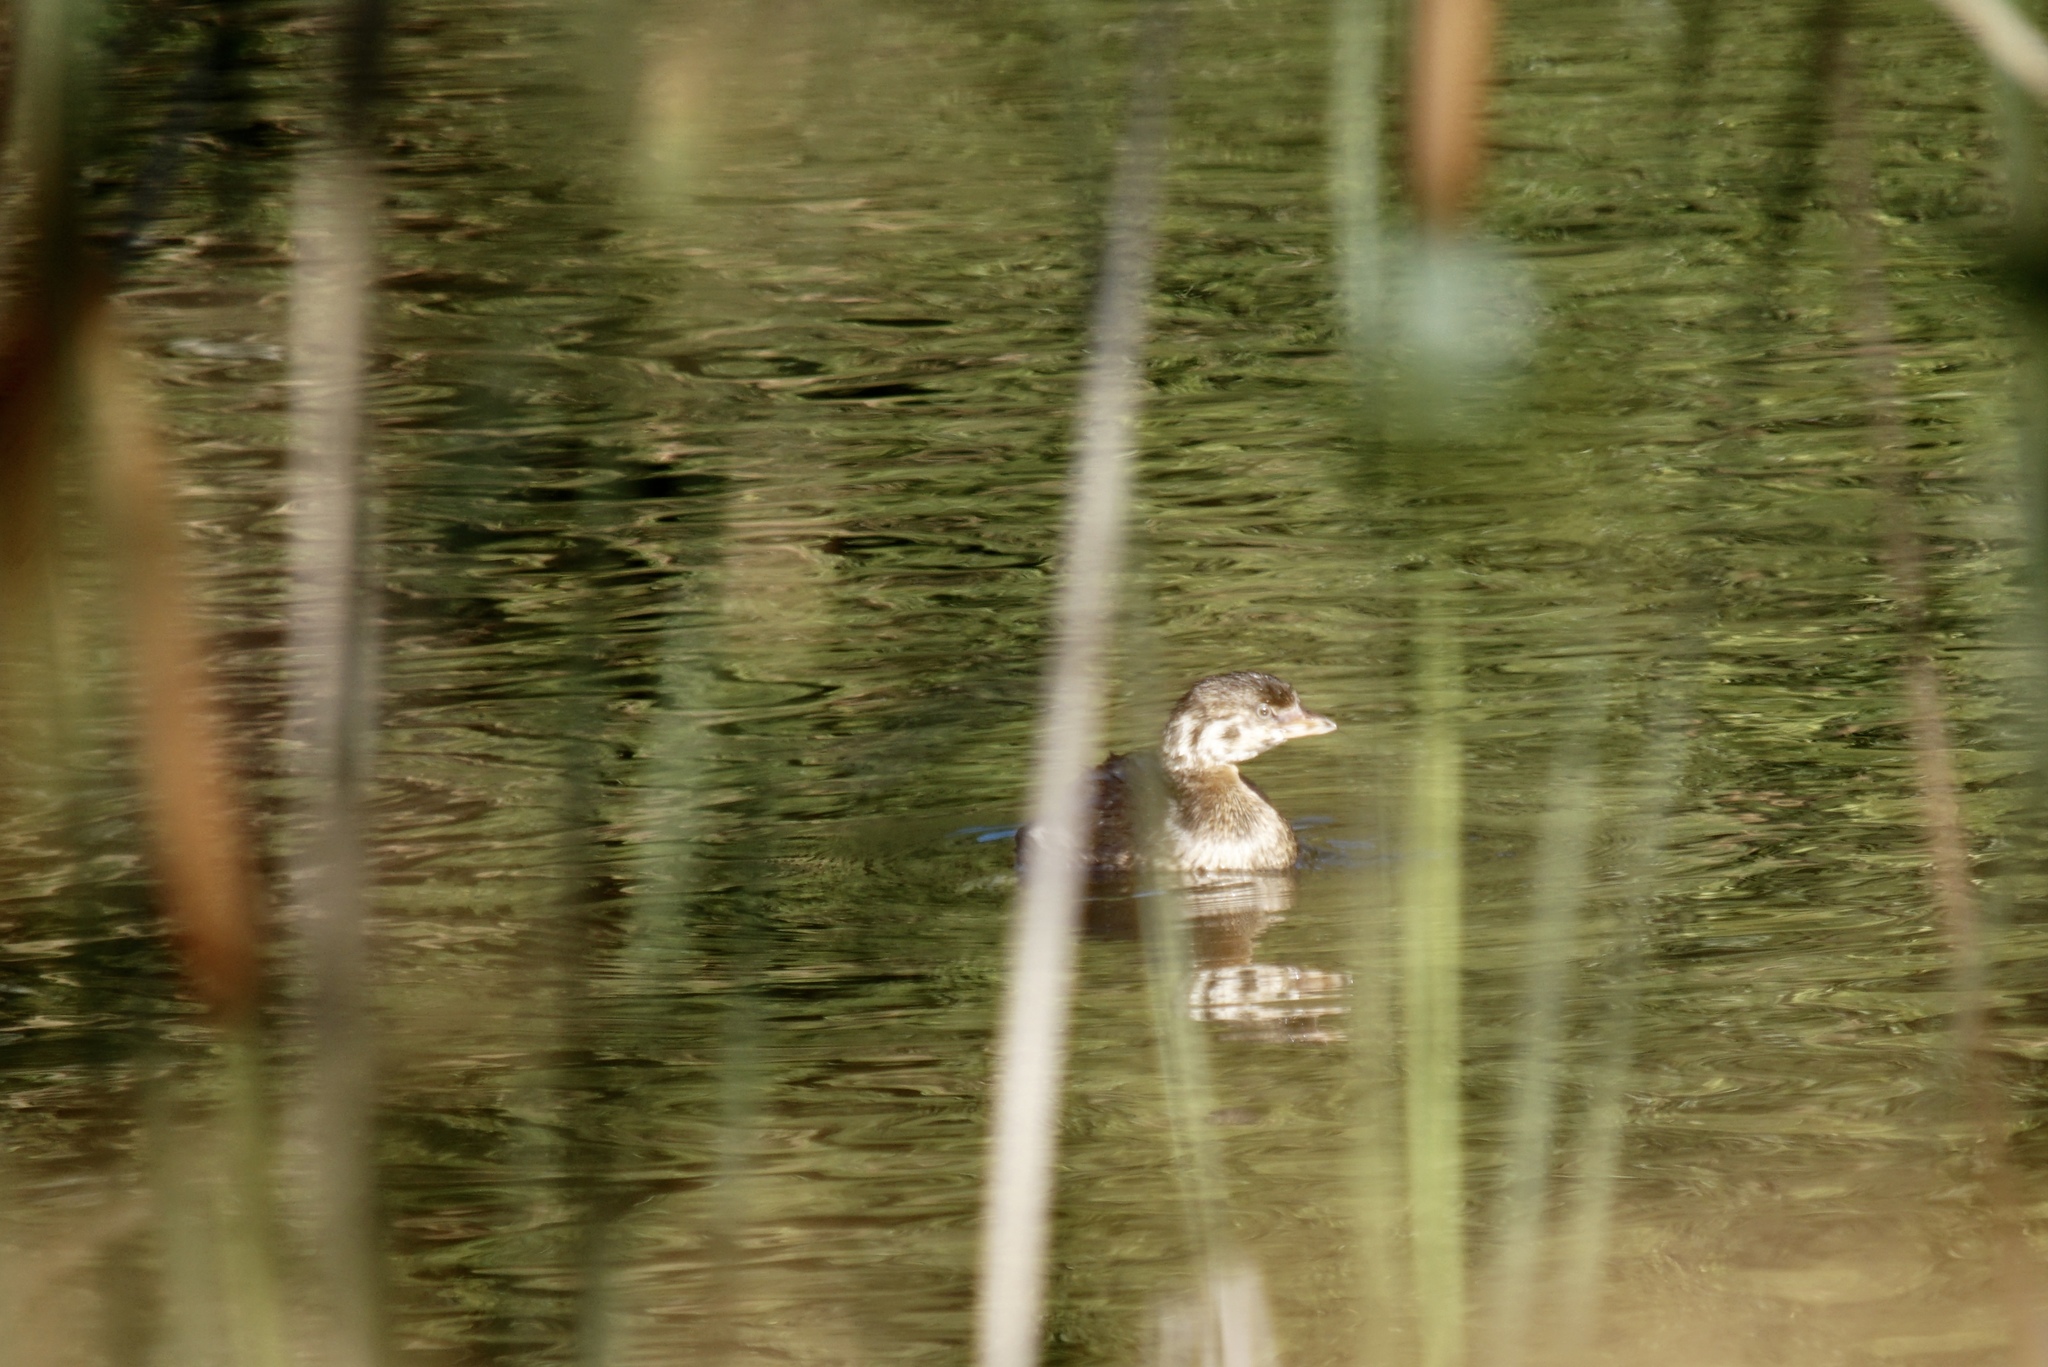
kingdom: Animalia
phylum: Chordata
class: Aves
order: Podicipediformes
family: Podicipedidae
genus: Podilymbus
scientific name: Podilymbus podiceps
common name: Pied-billed grebe
